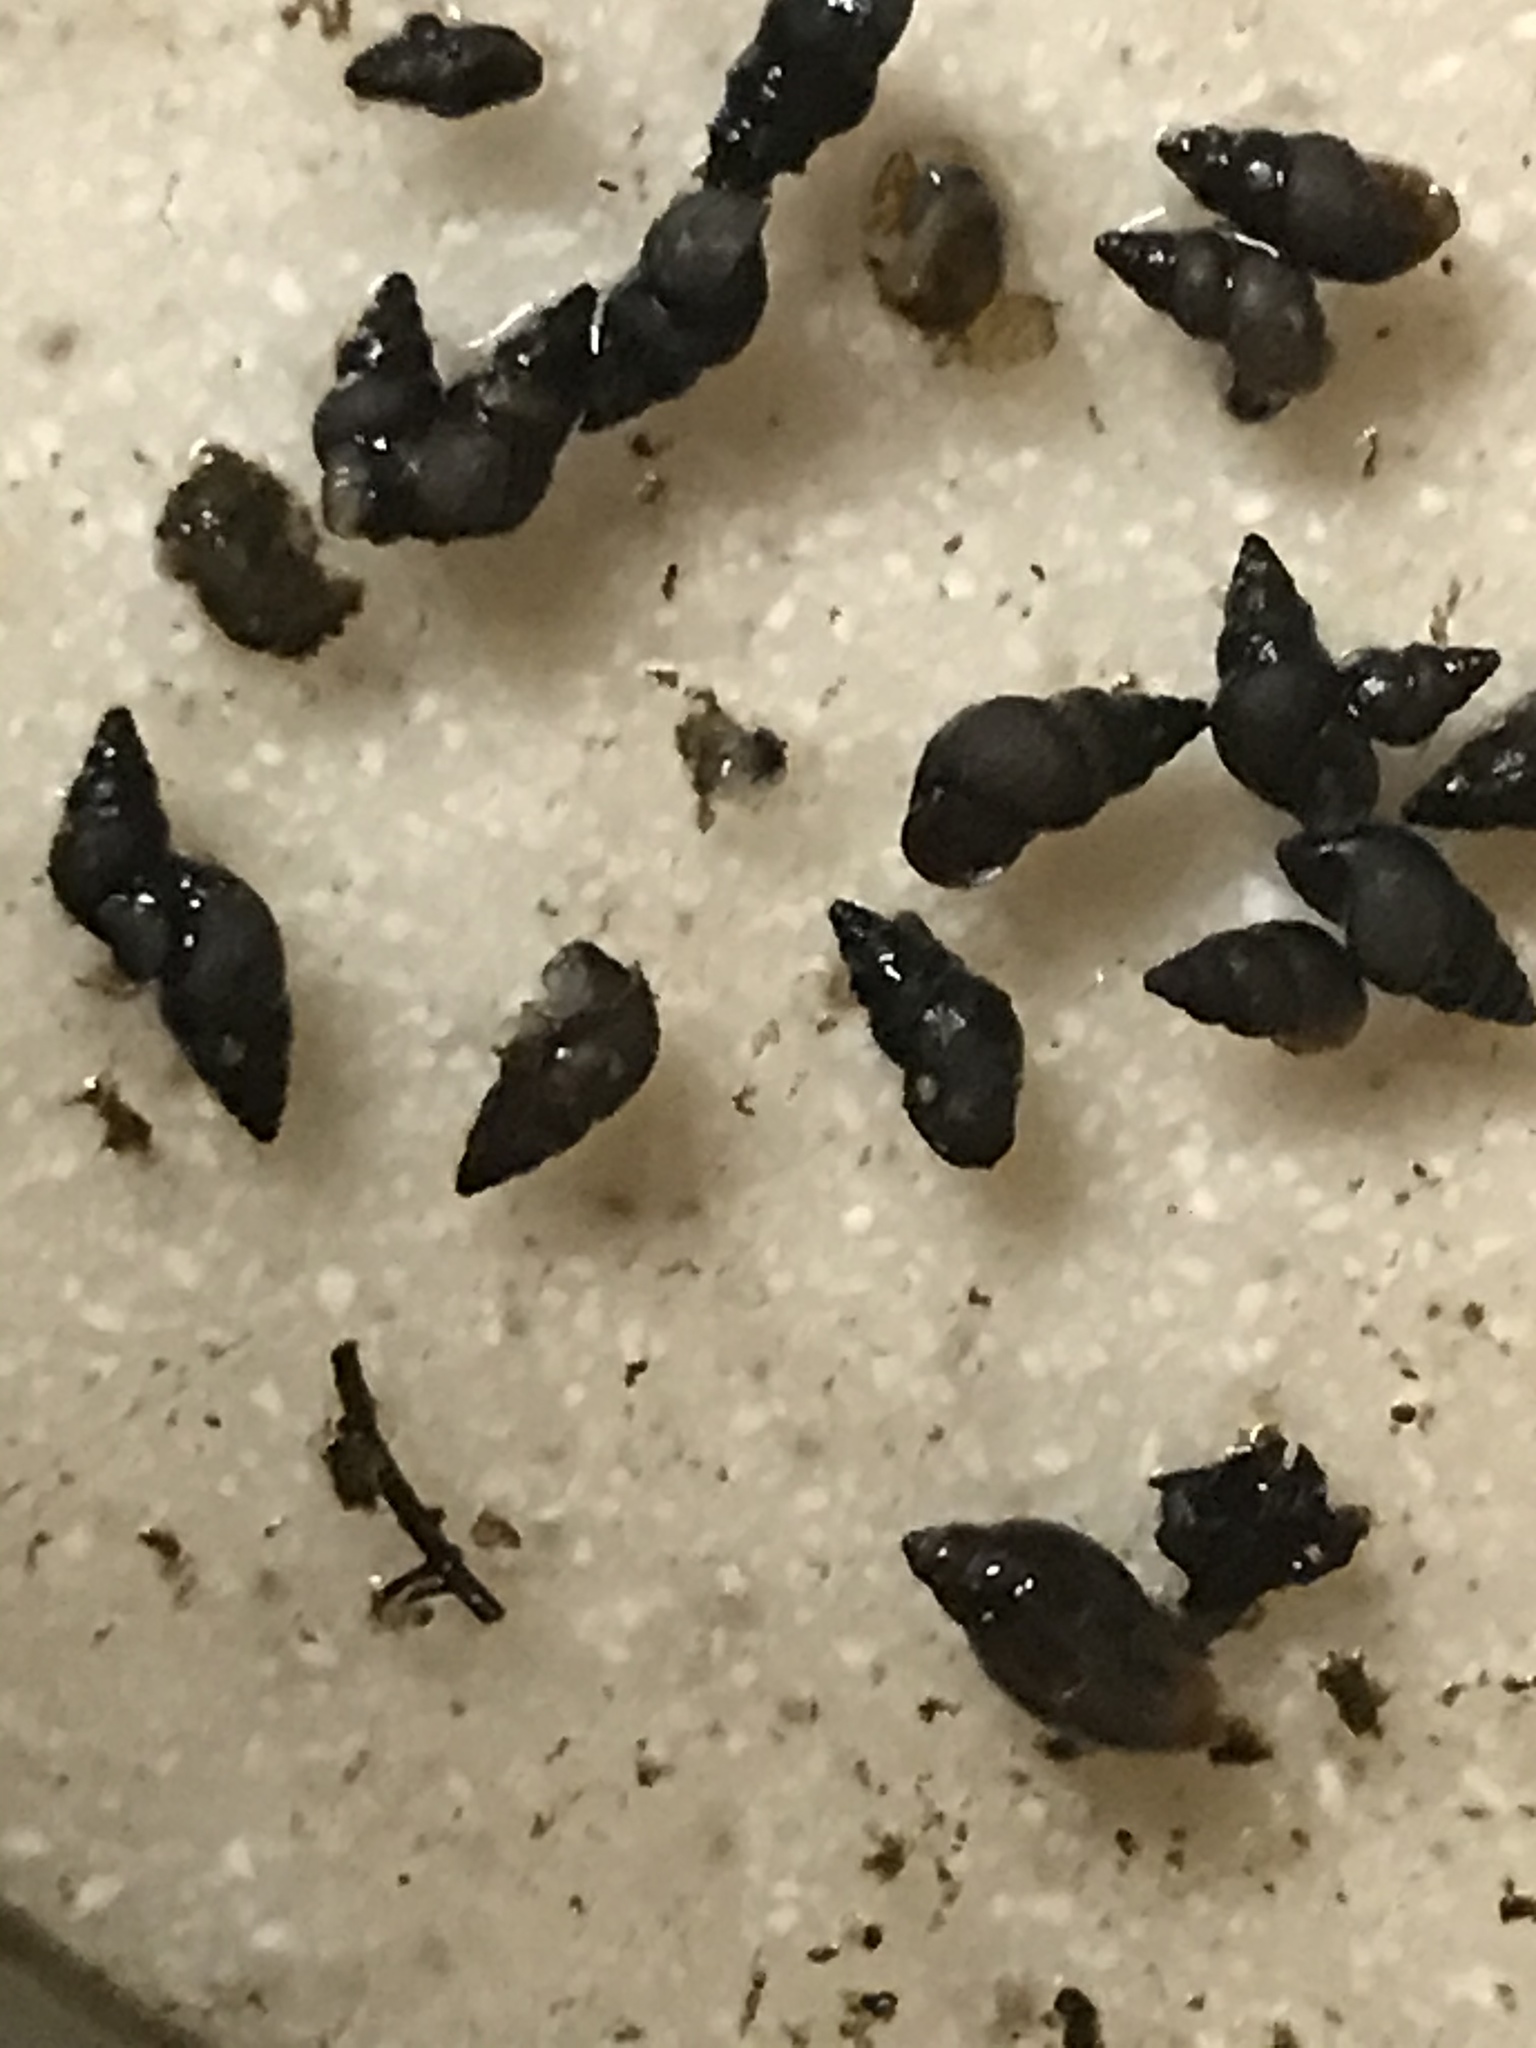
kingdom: Animalia
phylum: Mollusca
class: Gastropoda
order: Littorinimorpha
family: Tateidae
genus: Potamopyrgus
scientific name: Potamopyrgus antipodarum
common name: Jenkins' spire snail
